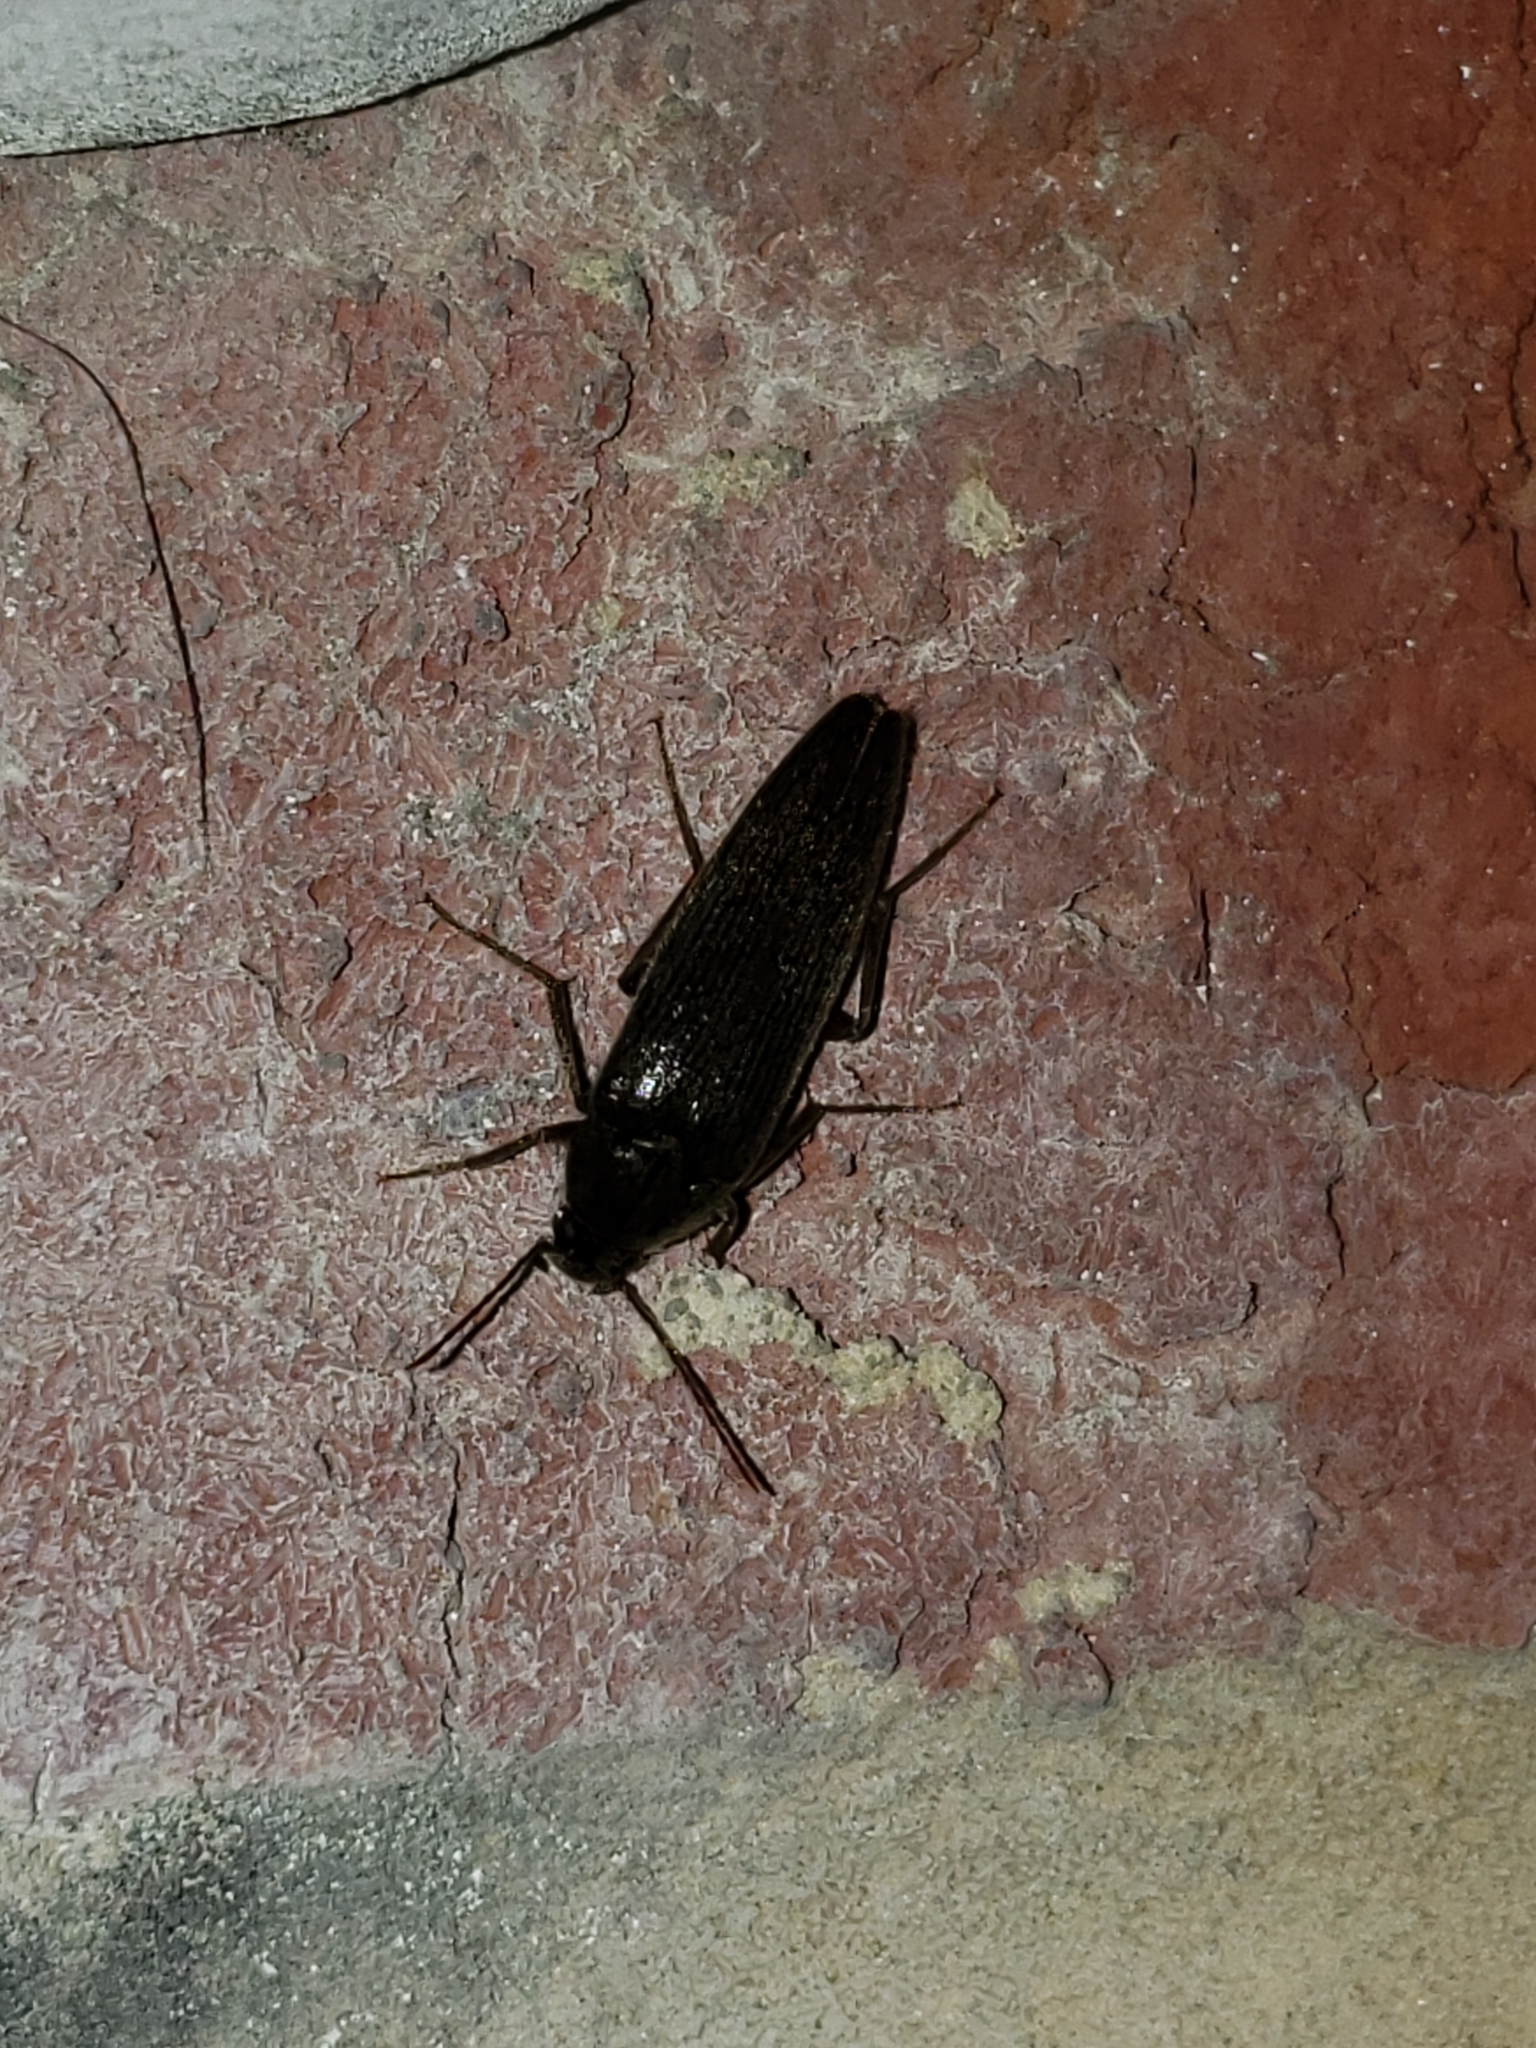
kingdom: Animalia
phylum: Arthropoda
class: Insecta
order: Coleoptera
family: Synchroidae
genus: Synchroa
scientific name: Synchroa punctata
